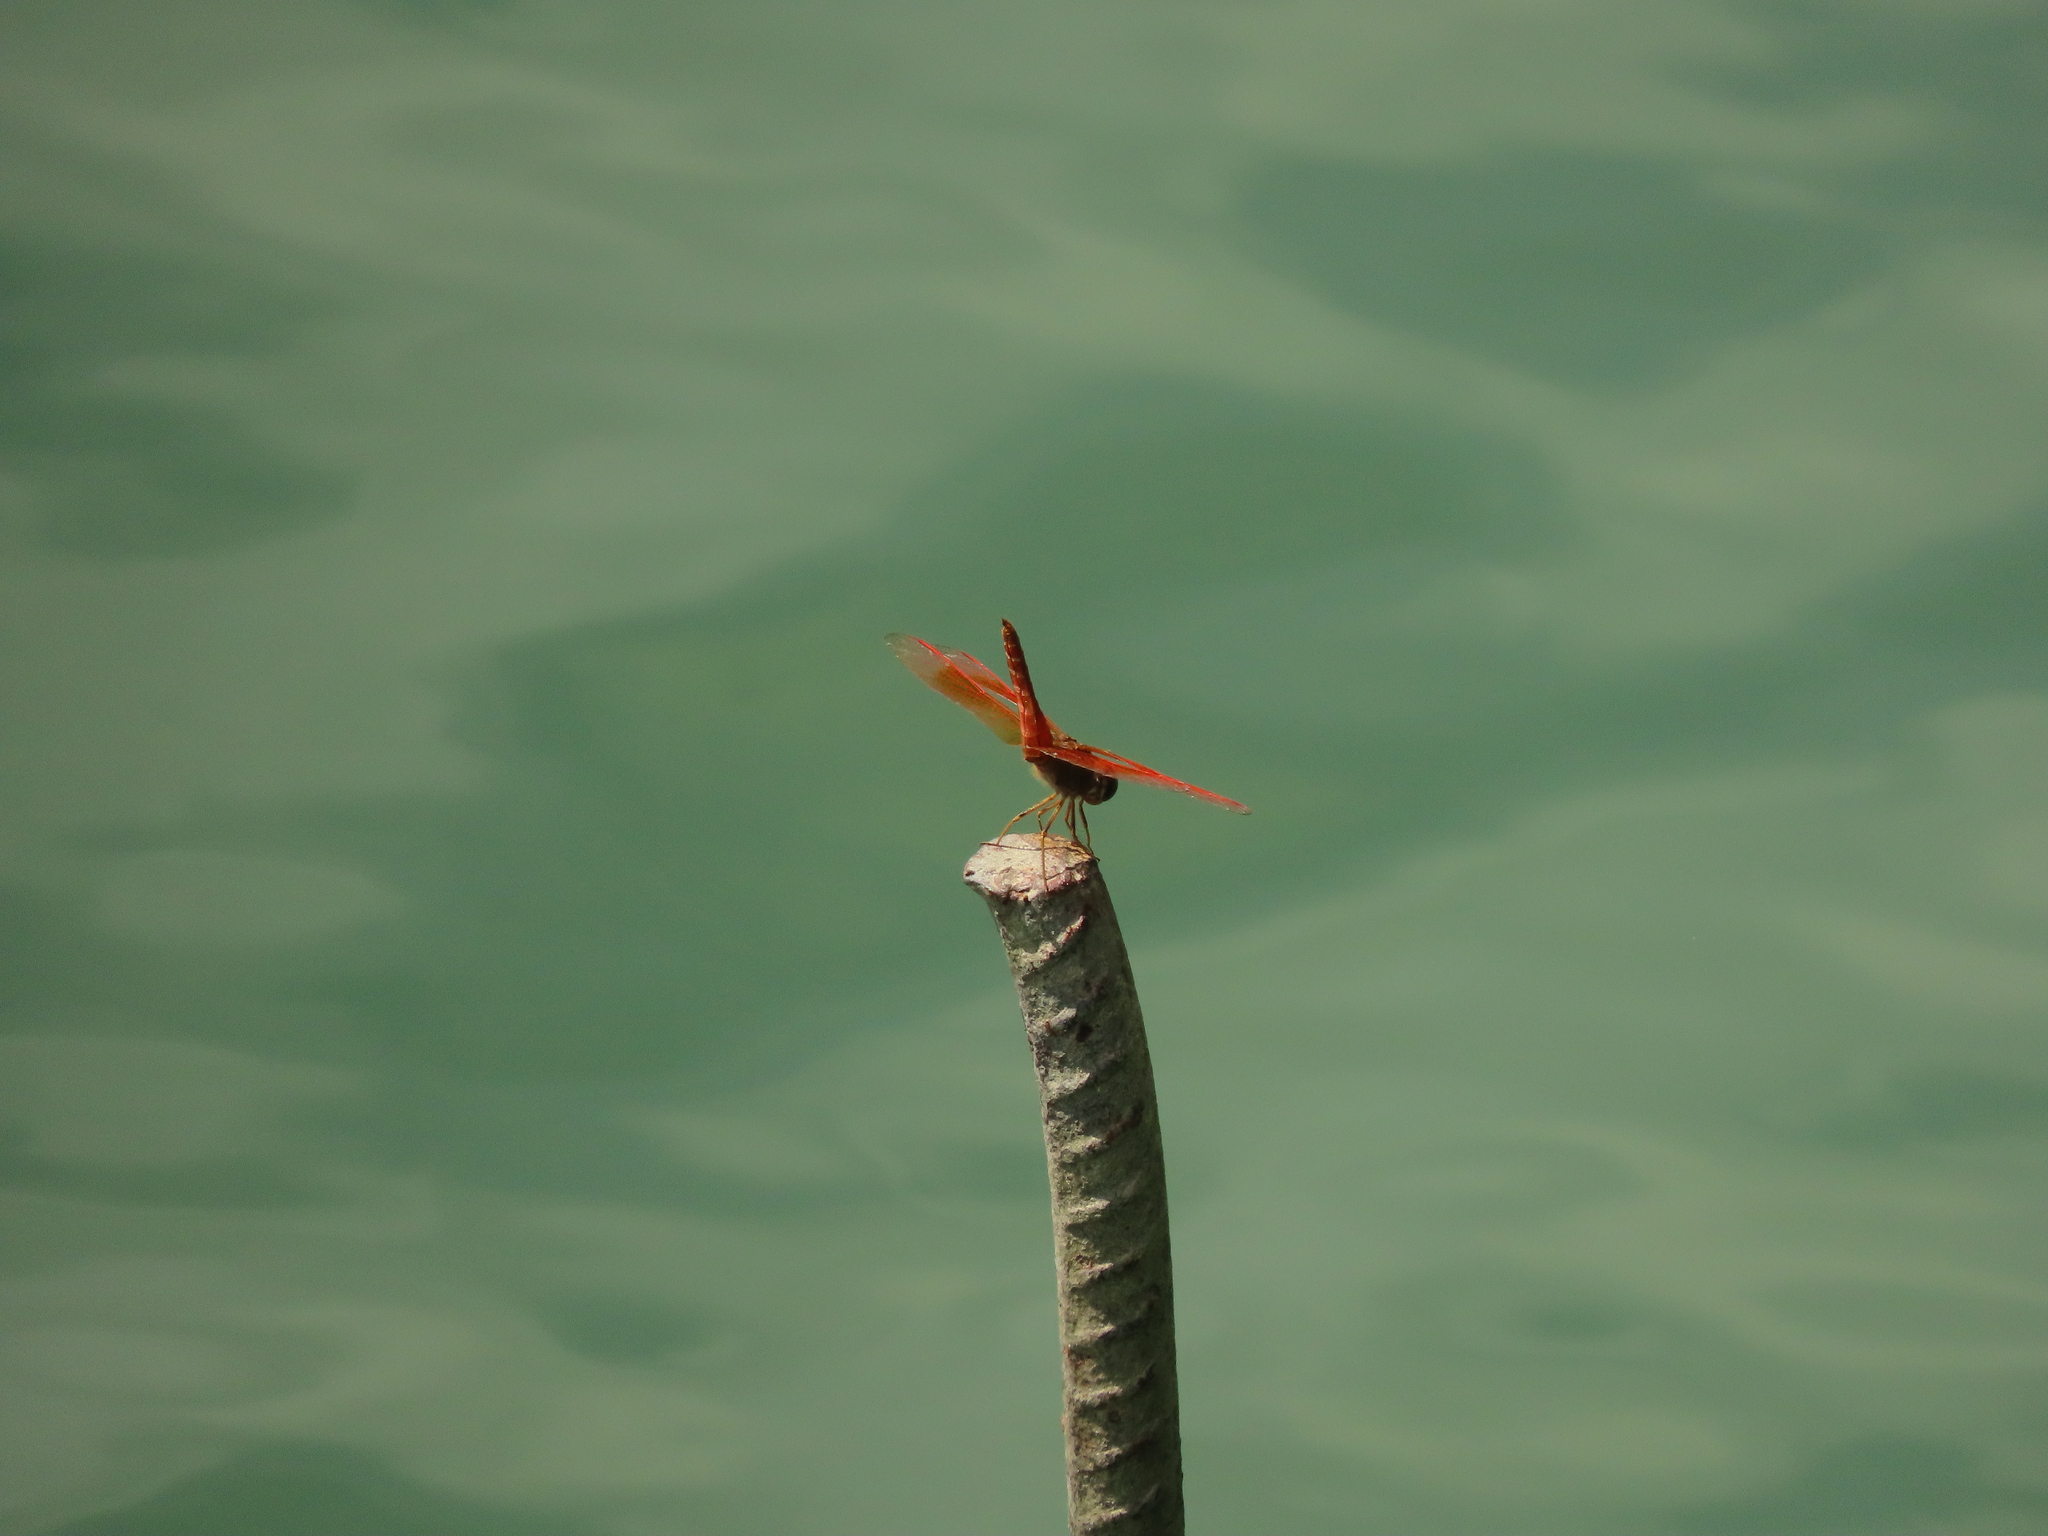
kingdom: Animalia
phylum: Arthropoda
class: Insecta
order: Odonata
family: Libellulidae
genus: Brachythemis
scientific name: Brachythemis contaminata
